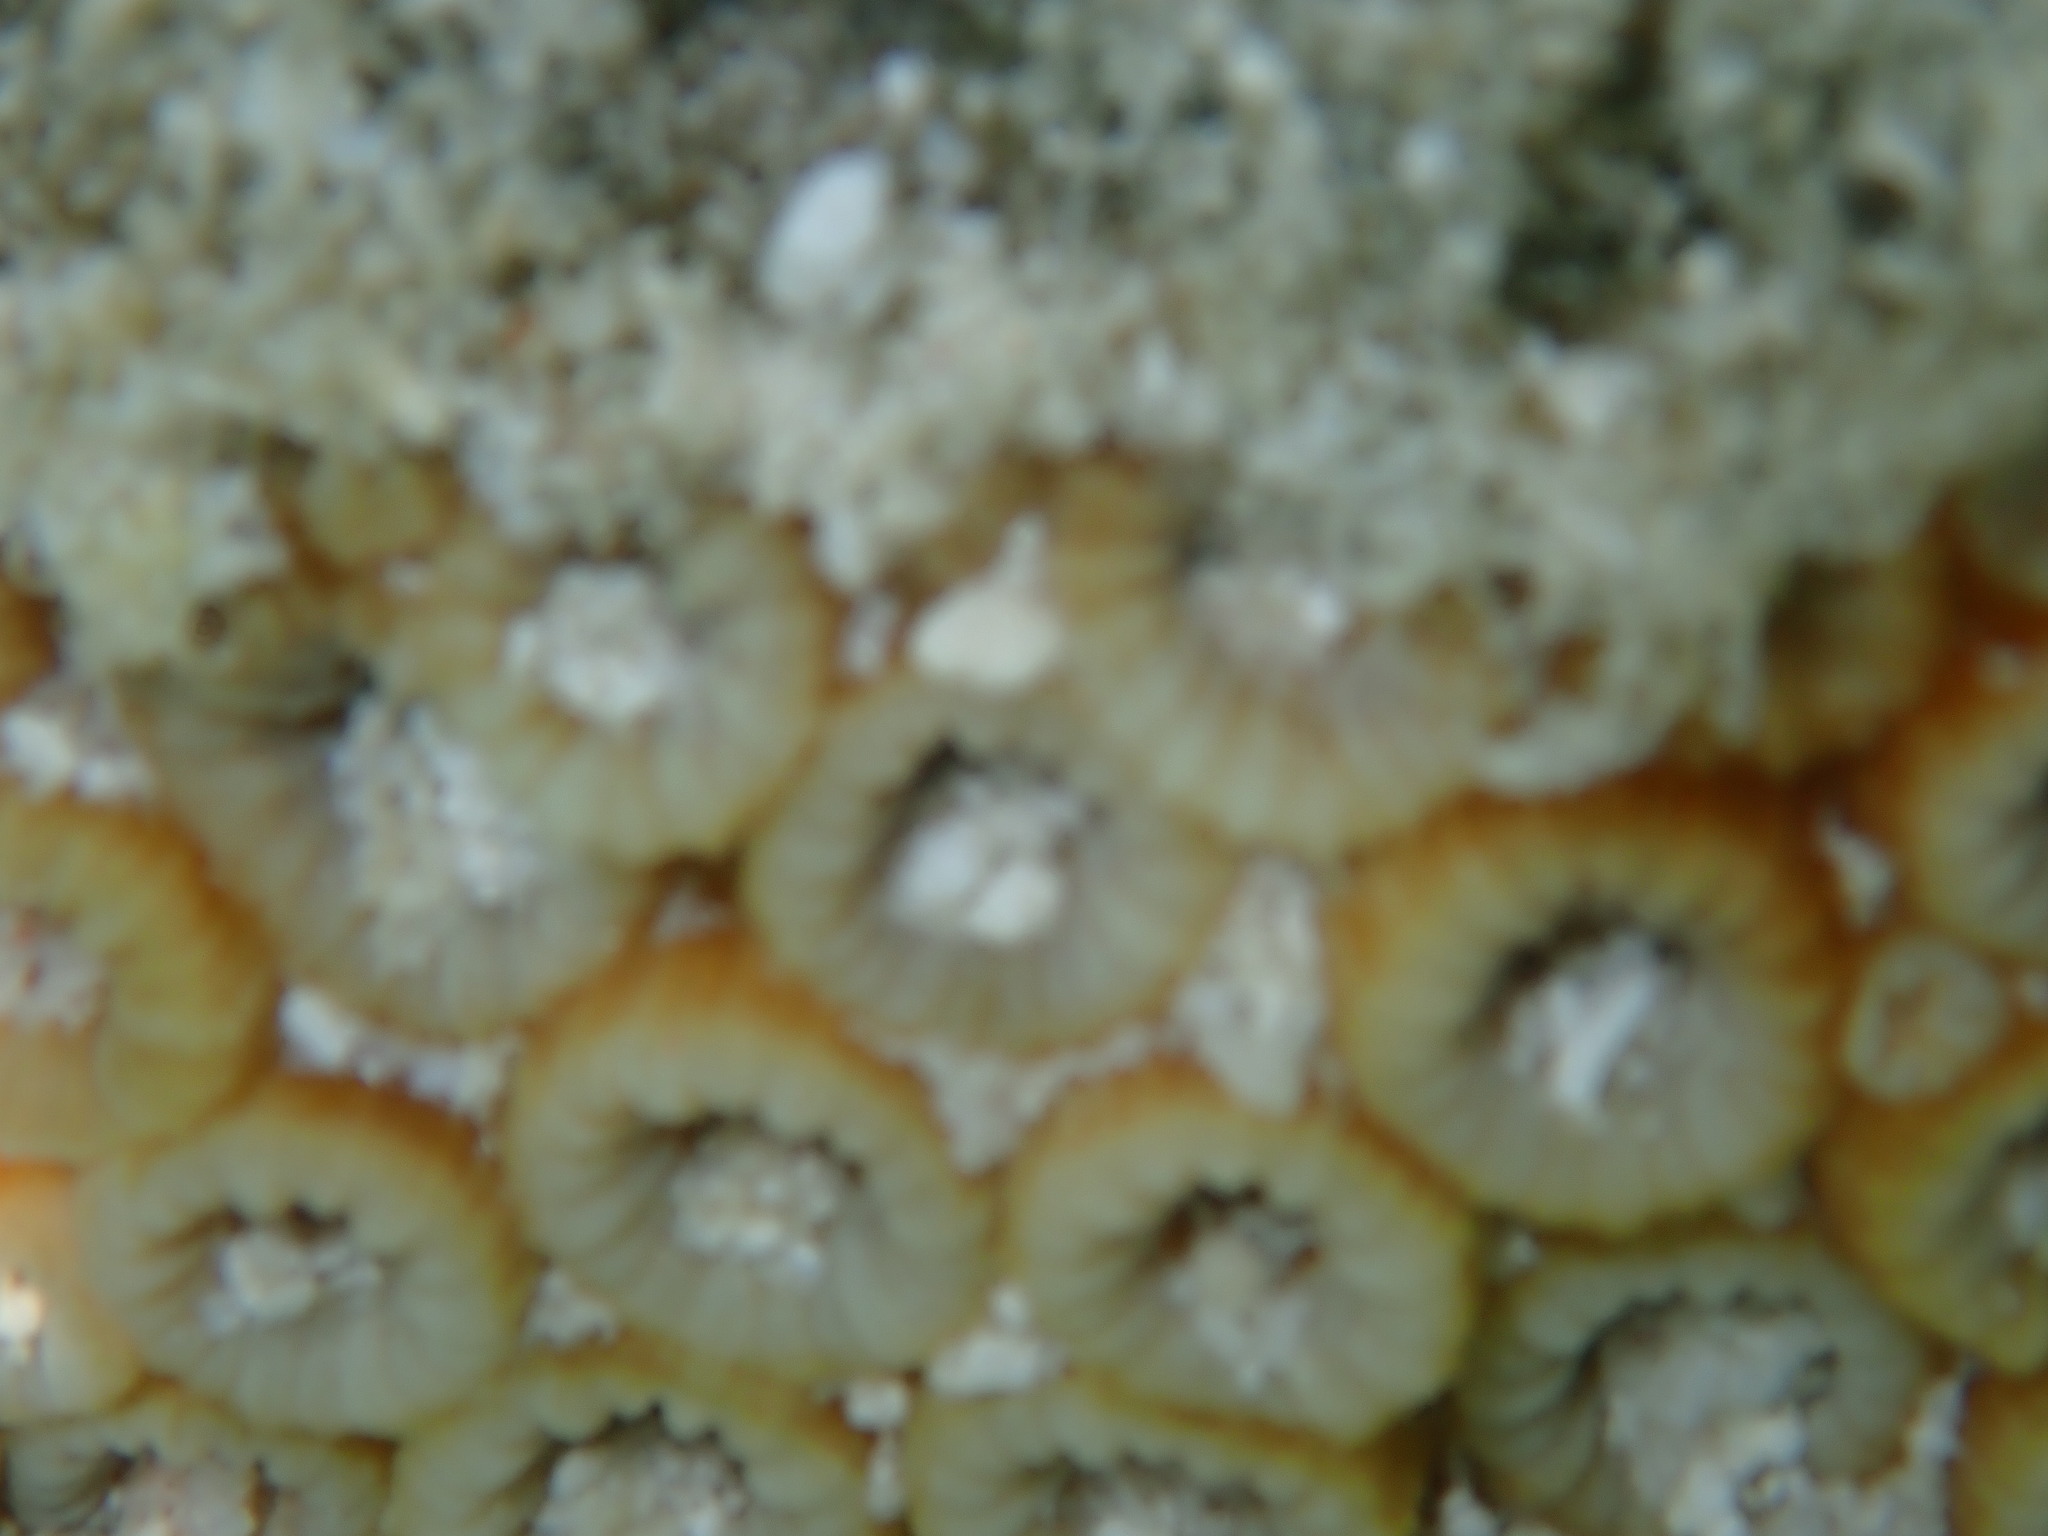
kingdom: Animalia
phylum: Cnidaria
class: Anthozoa
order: Scleractinia
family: Merulinidae
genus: Astrea
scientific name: Astrea curta
